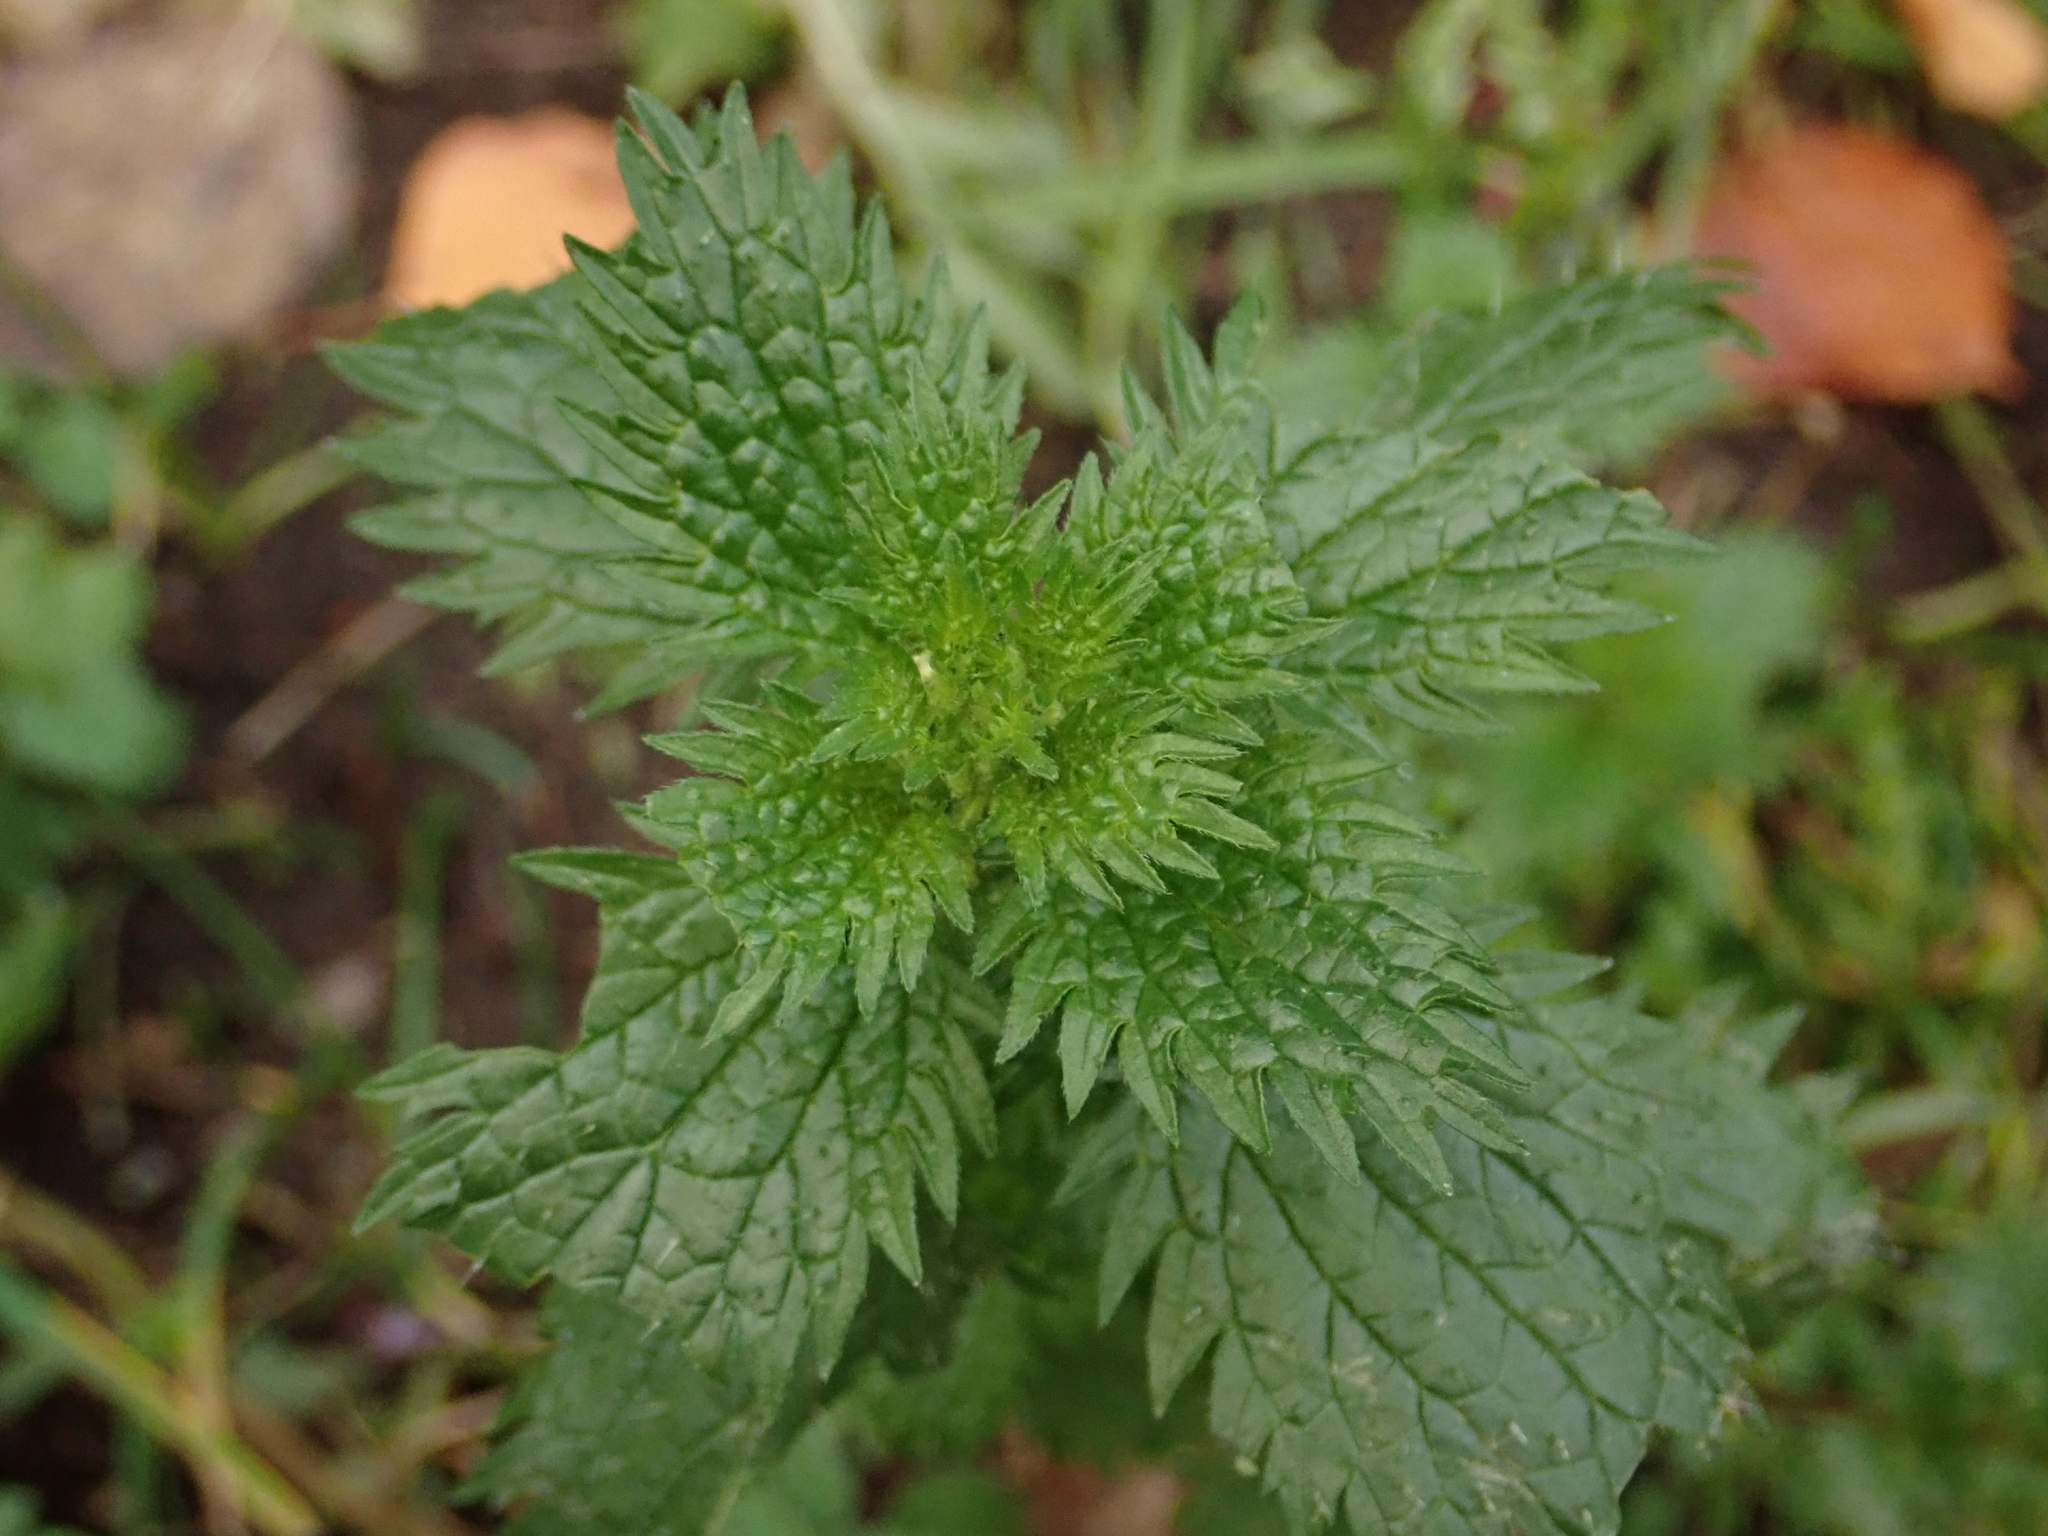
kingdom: Plantae
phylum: Tracheophyta
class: Magnoliopsida
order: Rosales
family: Urticaceae
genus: Urtica
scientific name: Urtica urens
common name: Dwarf nettle
